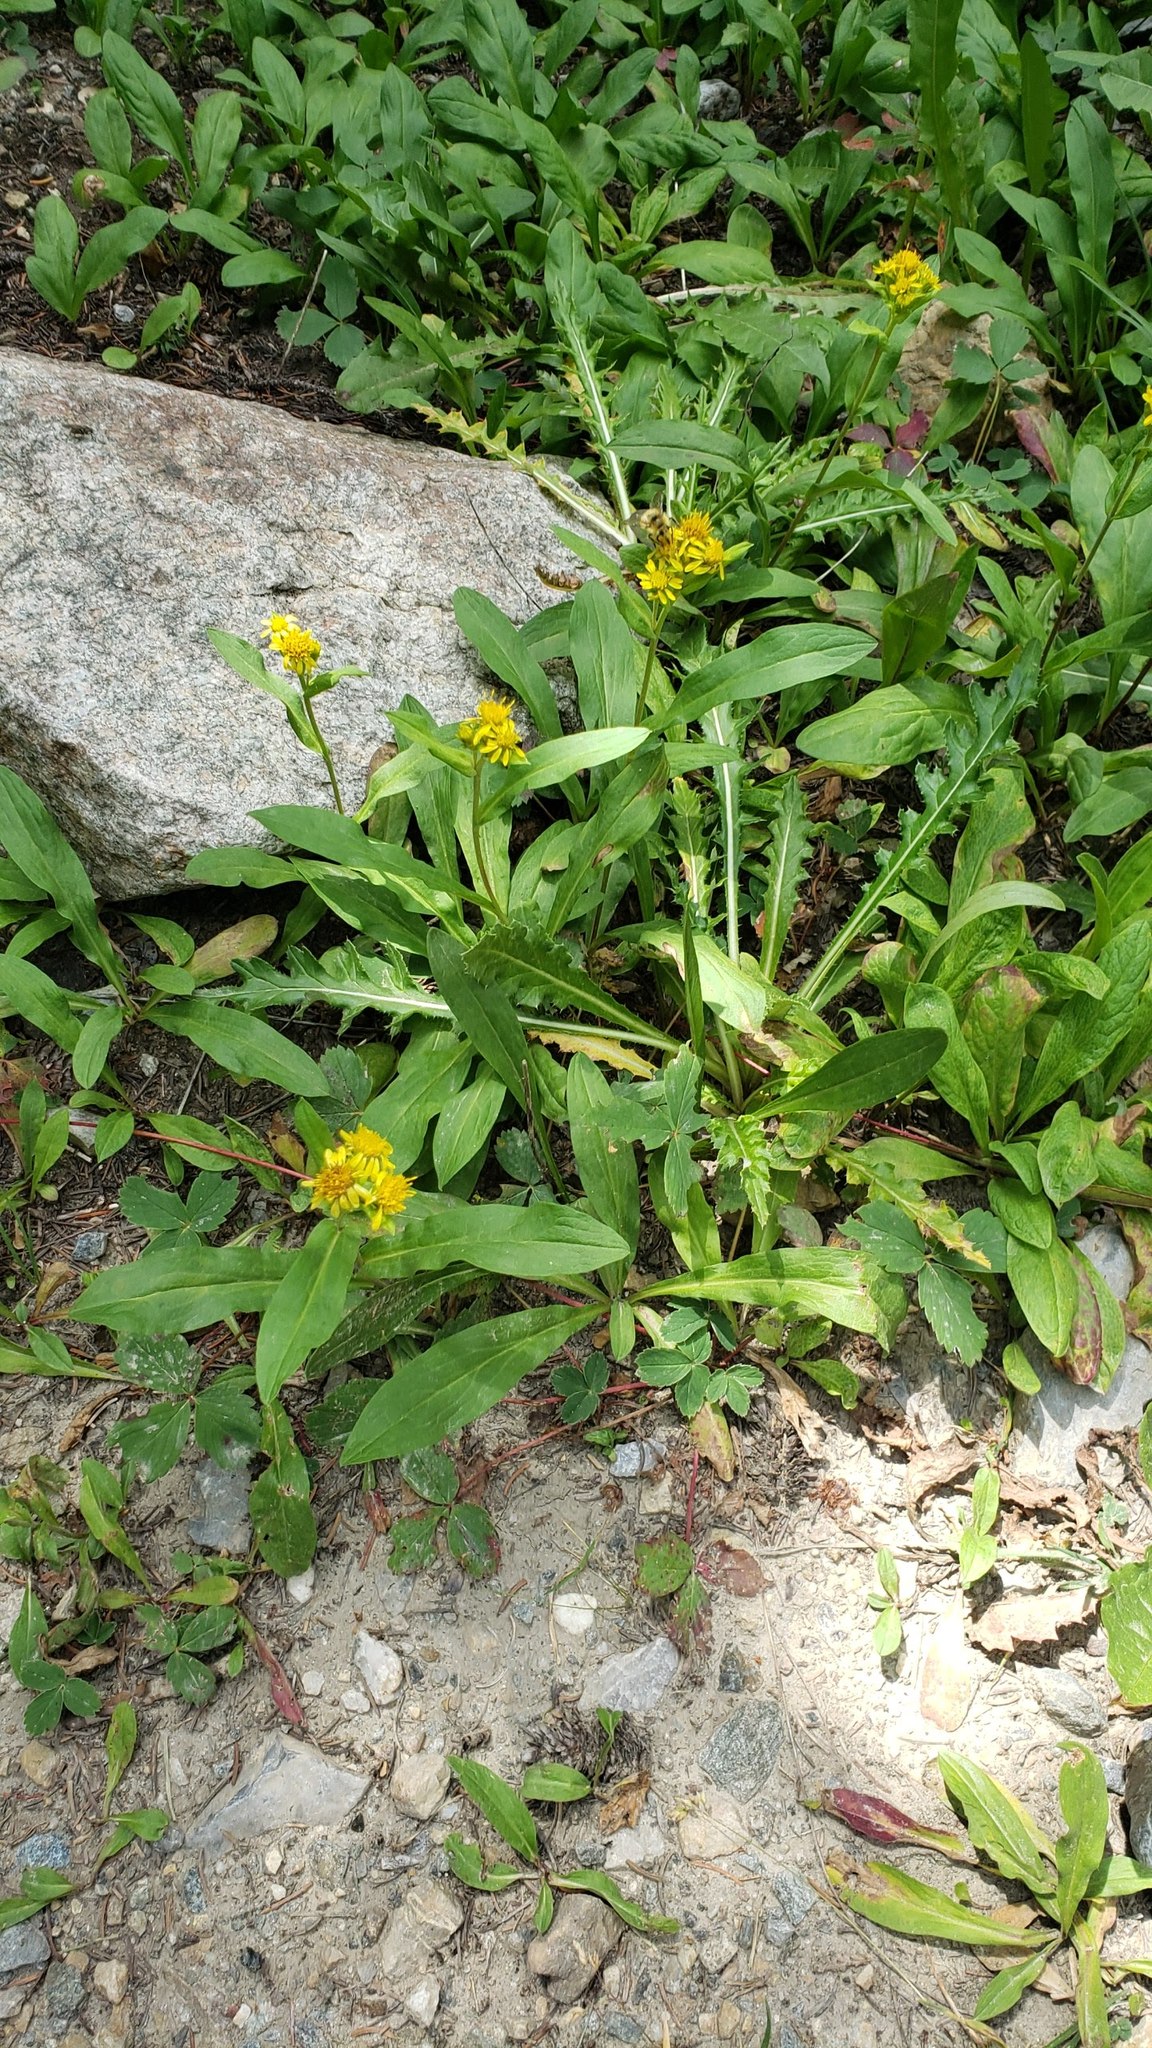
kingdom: Plantae
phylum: Tracheophyta
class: Magnoliopsida
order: Asterales
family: Asteraceae
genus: Oreochrysum
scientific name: Oreochrysum parryi
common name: Parry's goldenweed
